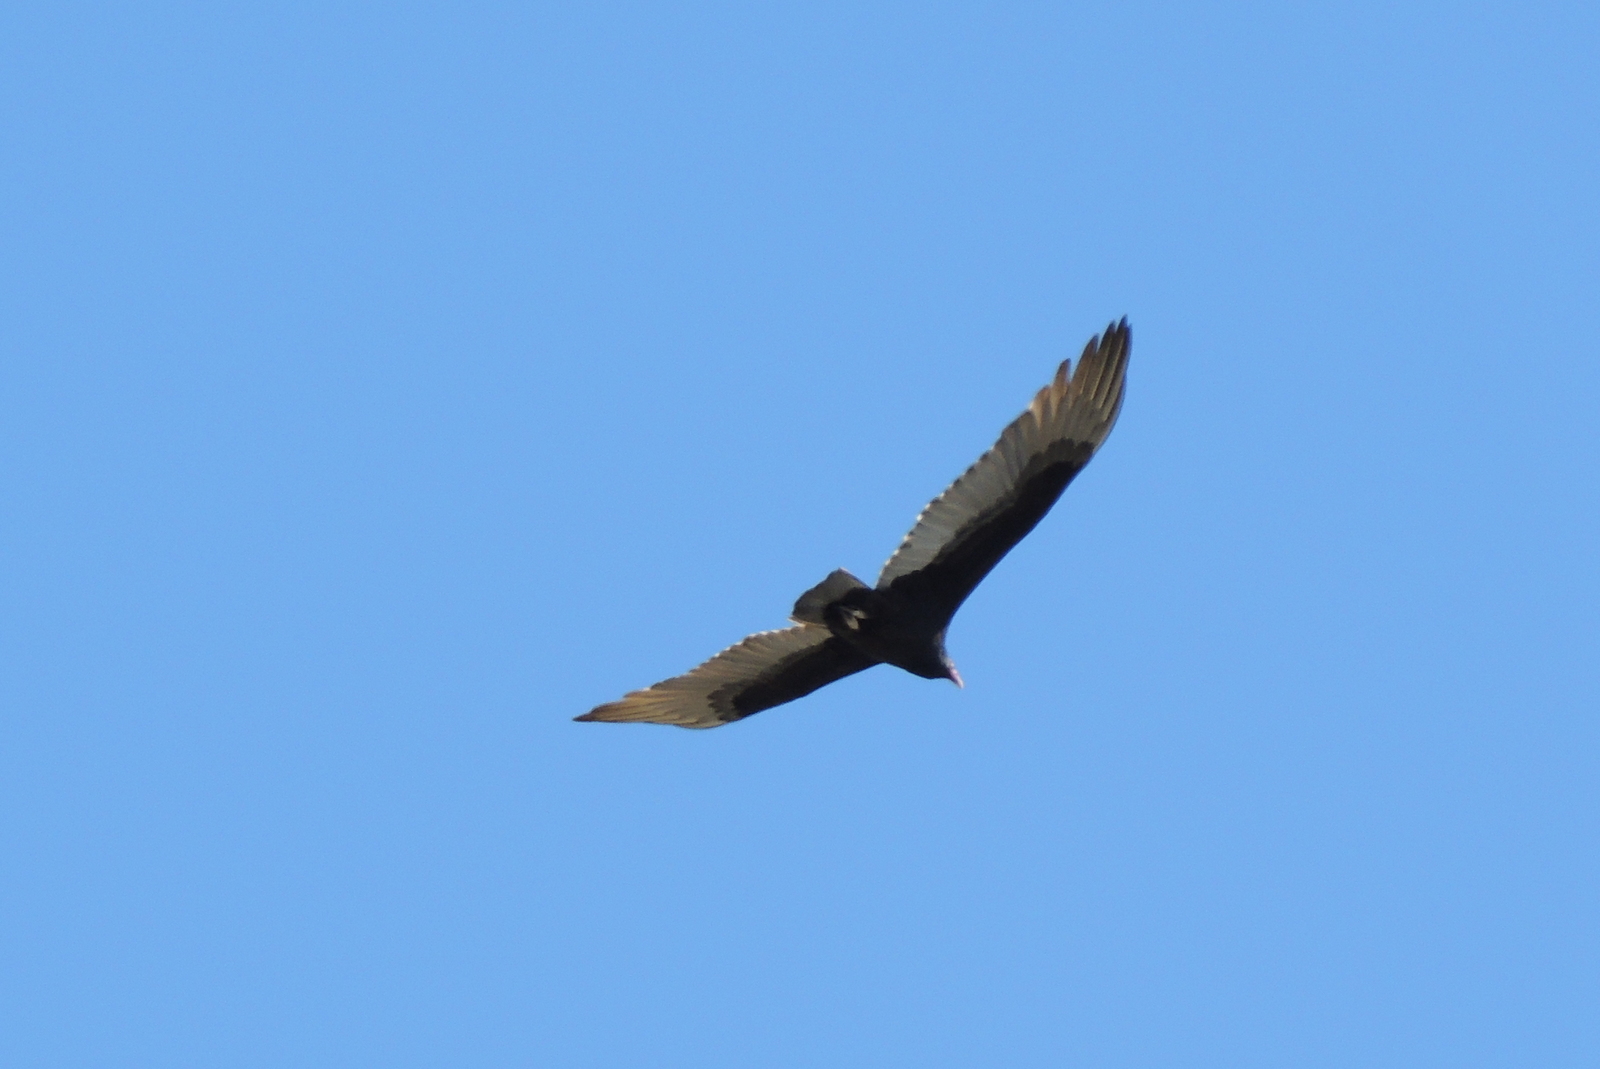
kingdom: Animalia
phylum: Chordata
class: Aves
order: Accipitriformes
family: Cathartidae
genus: Cathartes
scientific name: Cathartes aura
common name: Turkey vulture
